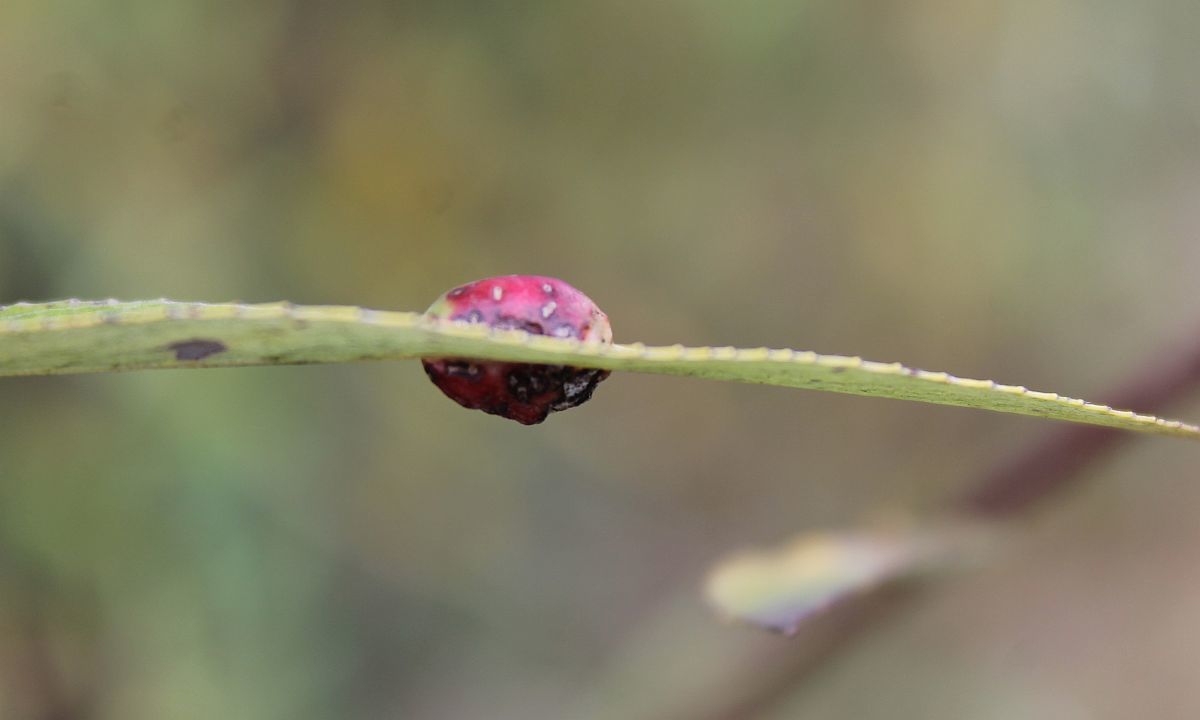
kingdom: Animalia
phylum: Arthropoda
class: Insecta
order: Hymenoptera
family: Tenthredinidae
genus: Pontania
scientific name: Pontania proxima
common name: Common sawfly
